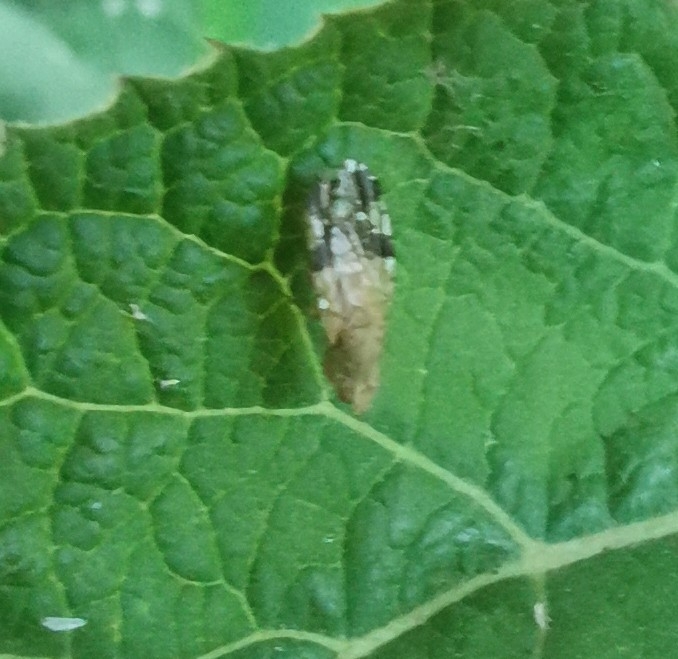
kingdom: Animalia
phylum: Arthropoda
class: Insecta
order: Diptera
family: Tephritidae
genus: Tephritis
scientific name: Tephritis bardanae
